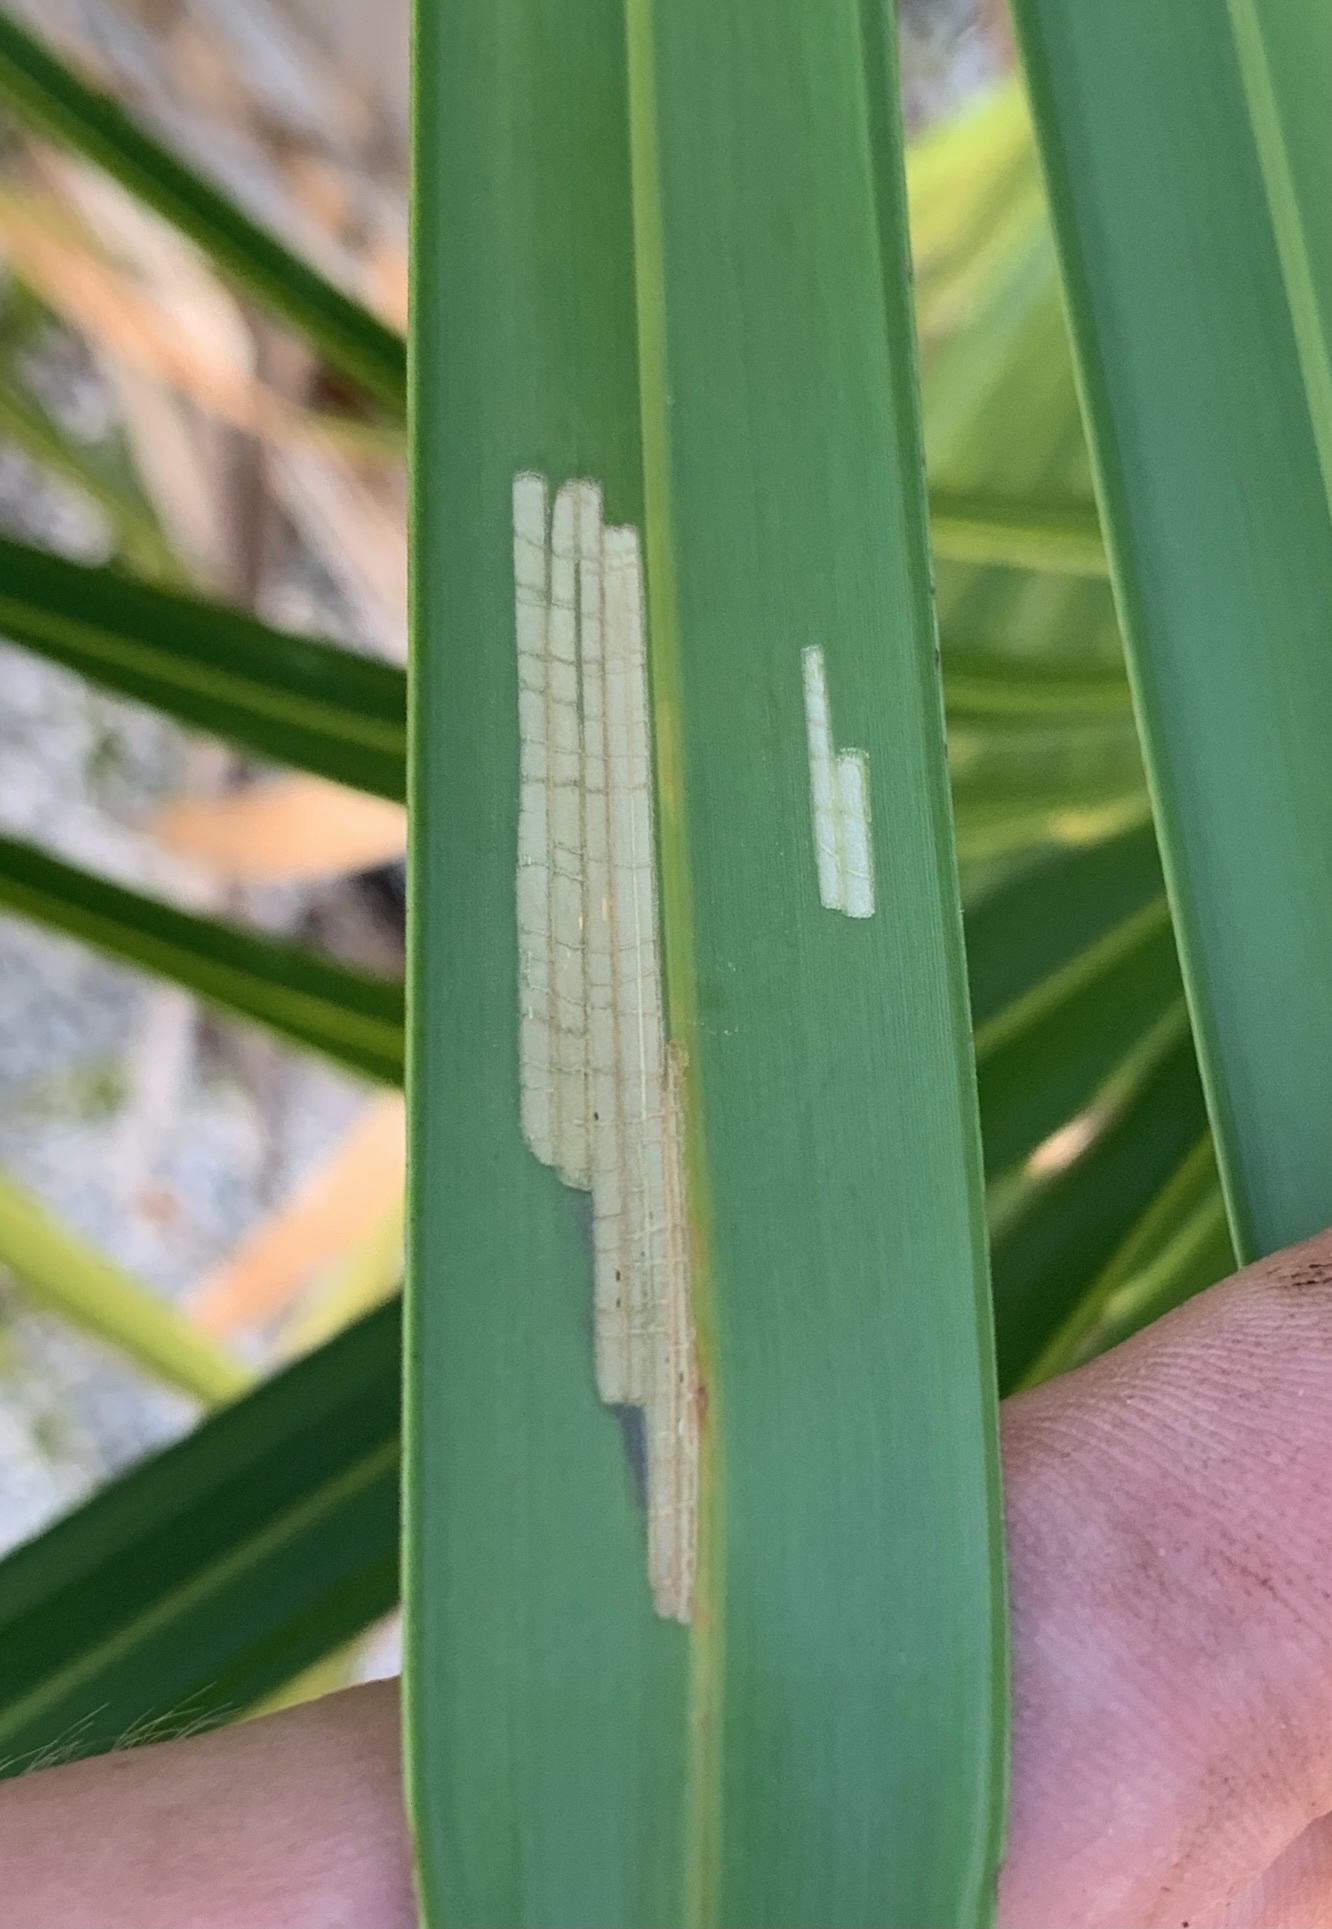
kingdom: Animalia
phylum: Arthropoda
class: Insecta
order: Coleoptera
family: Chrysomelidae
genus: Hemisphaerota
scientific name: Hemisphaerota cyanea
